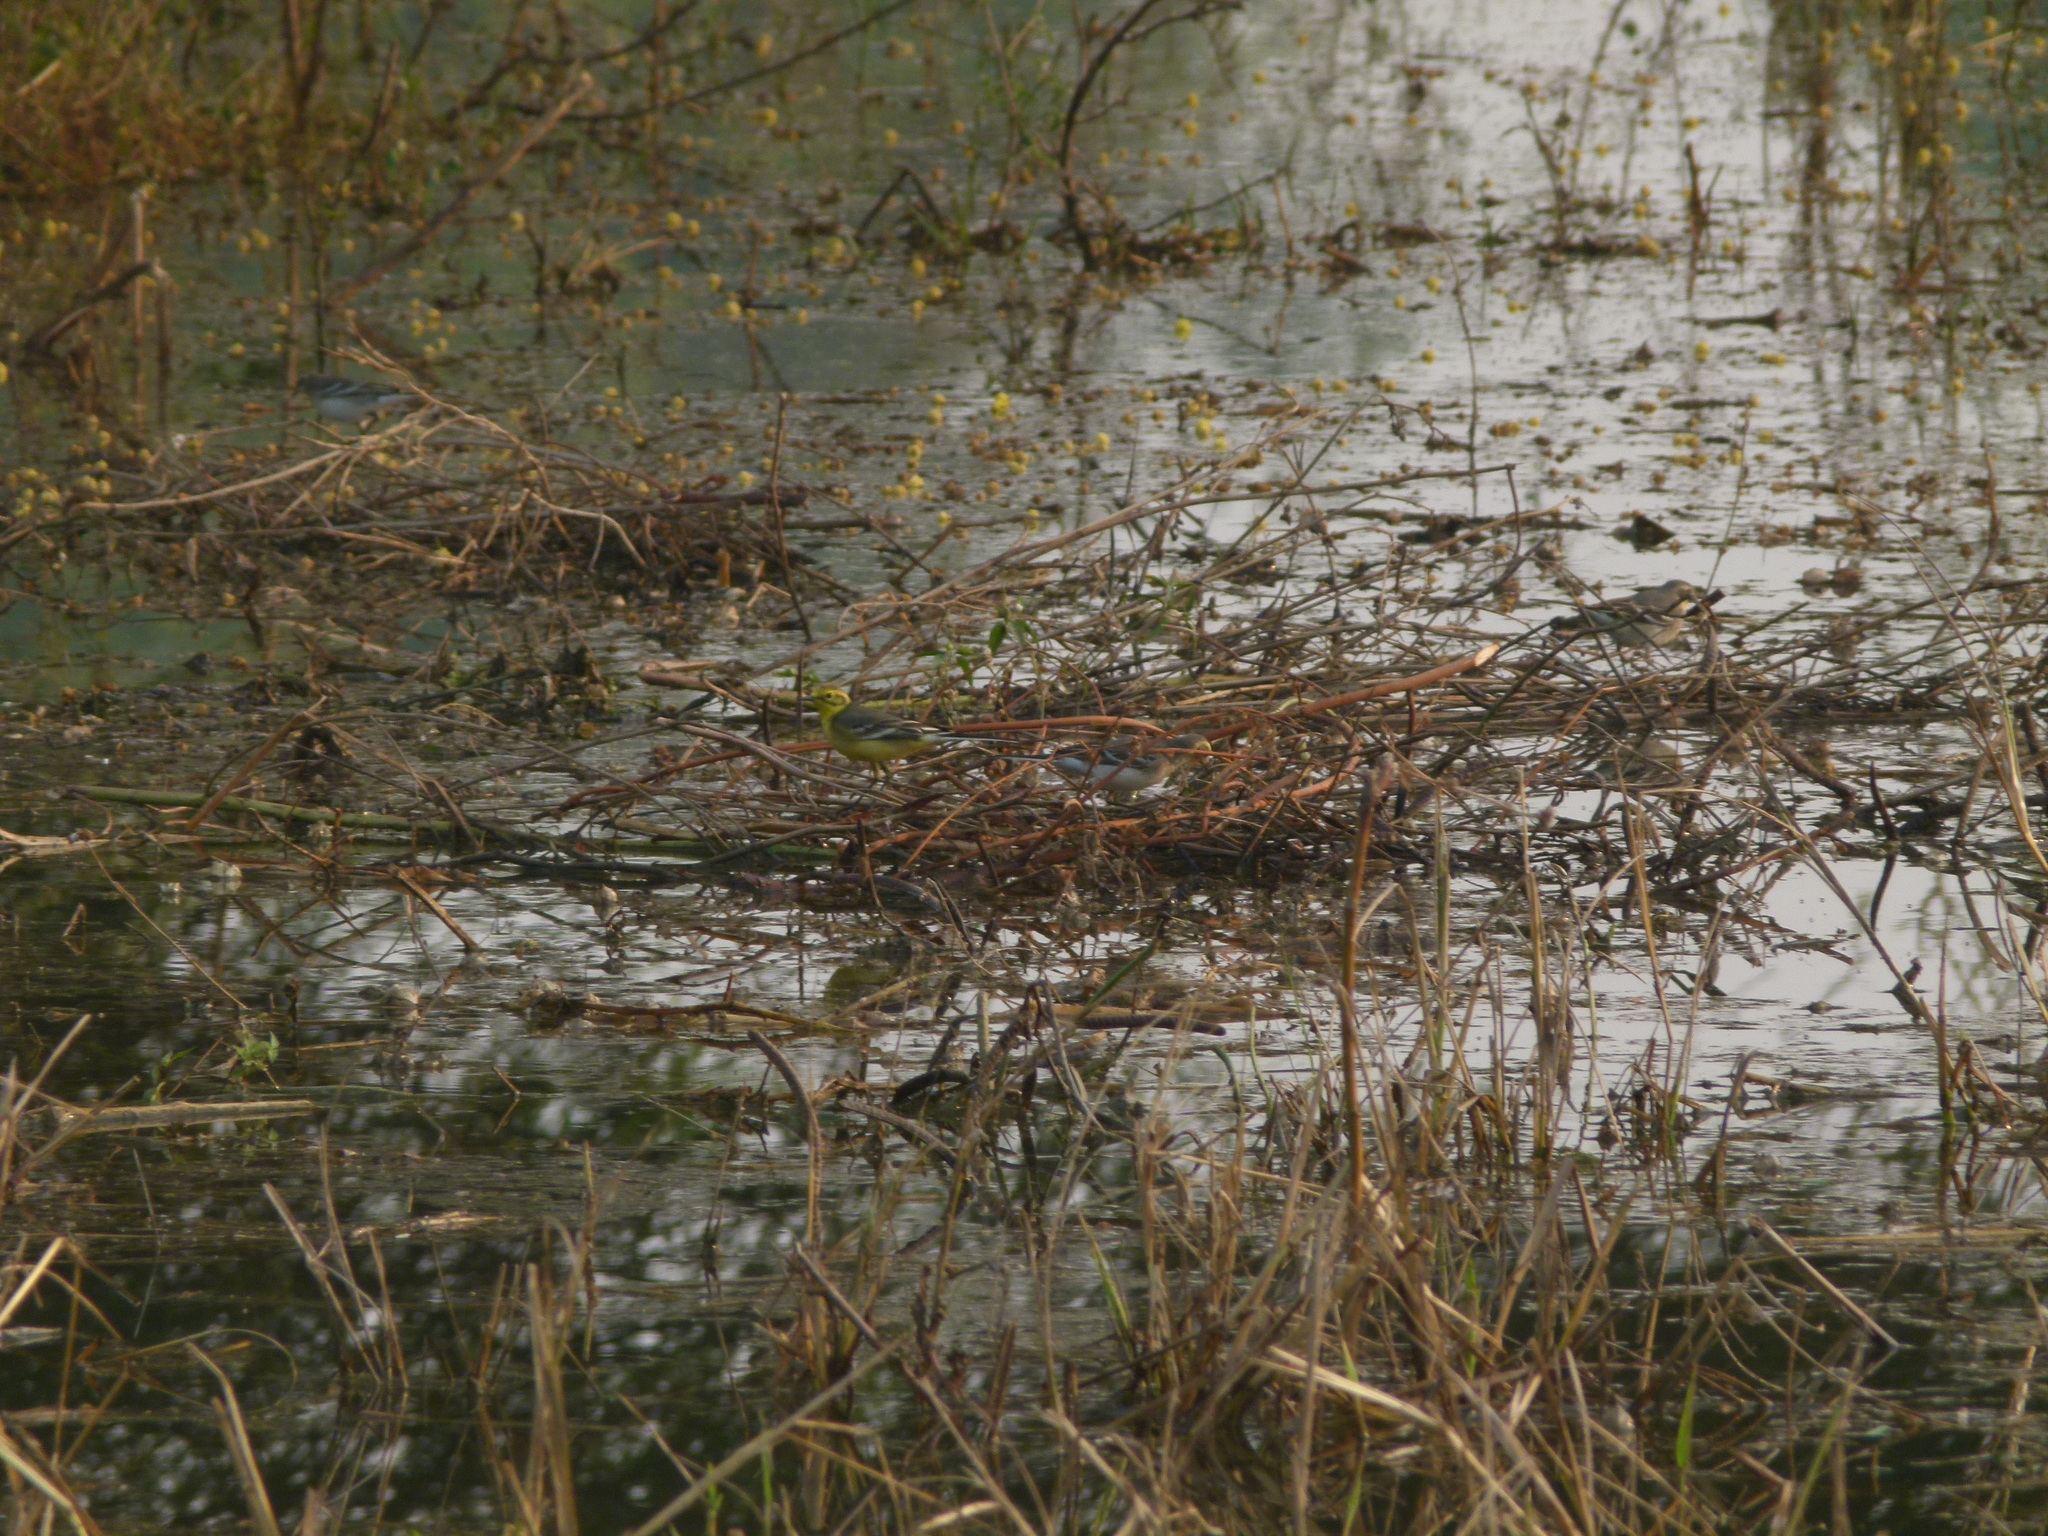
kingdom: Animalia
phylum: Chordata
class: Aves
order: Passeriformes
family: Motacillidae
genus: Motacilla
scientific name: Motacilla citreola
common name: Citrine wagtail
